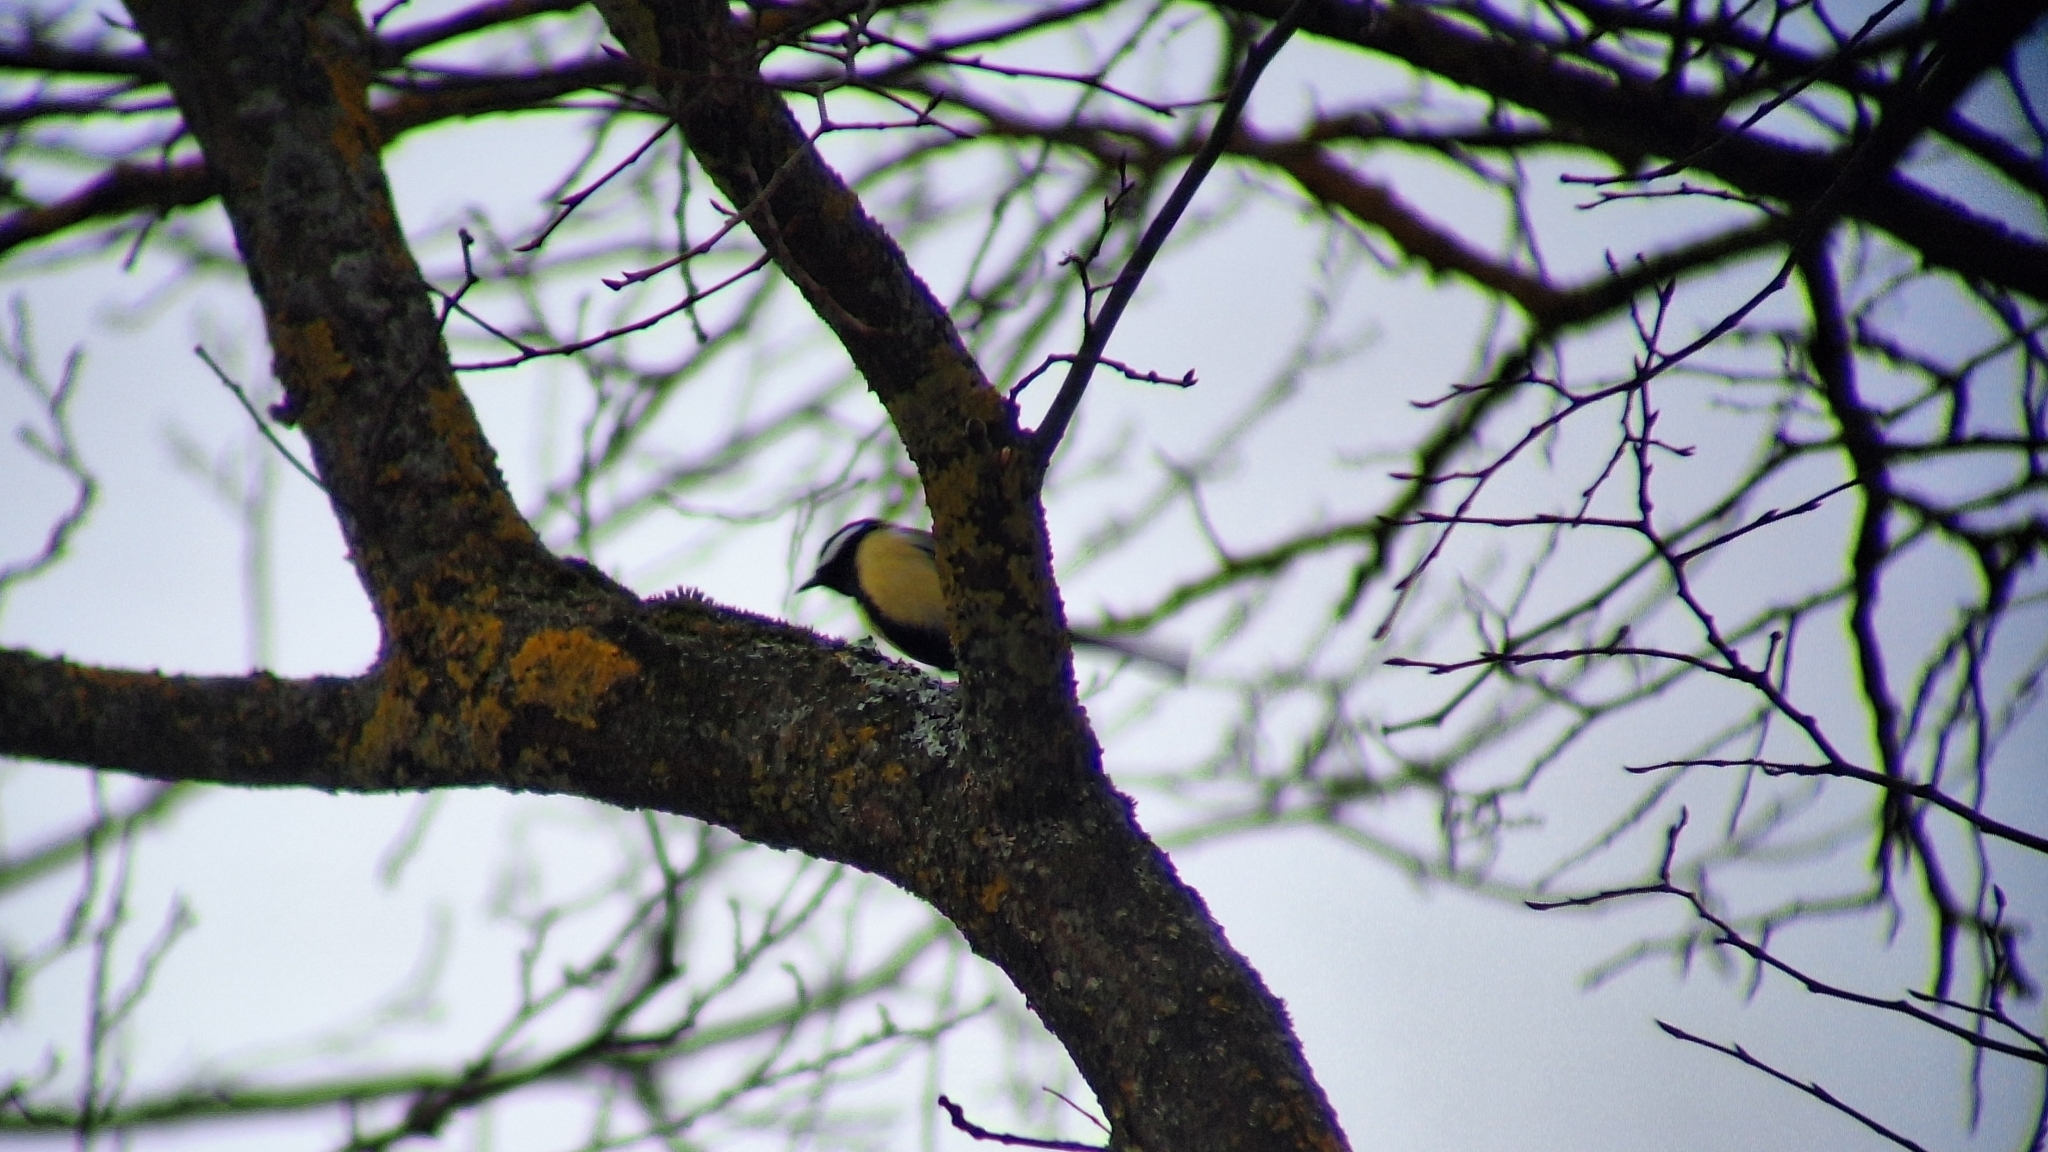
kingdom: Animalia
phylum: Chordata
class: Aves
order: Passeriformes
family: Paridae
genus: Parus
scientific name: Parus major
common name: Great tit
